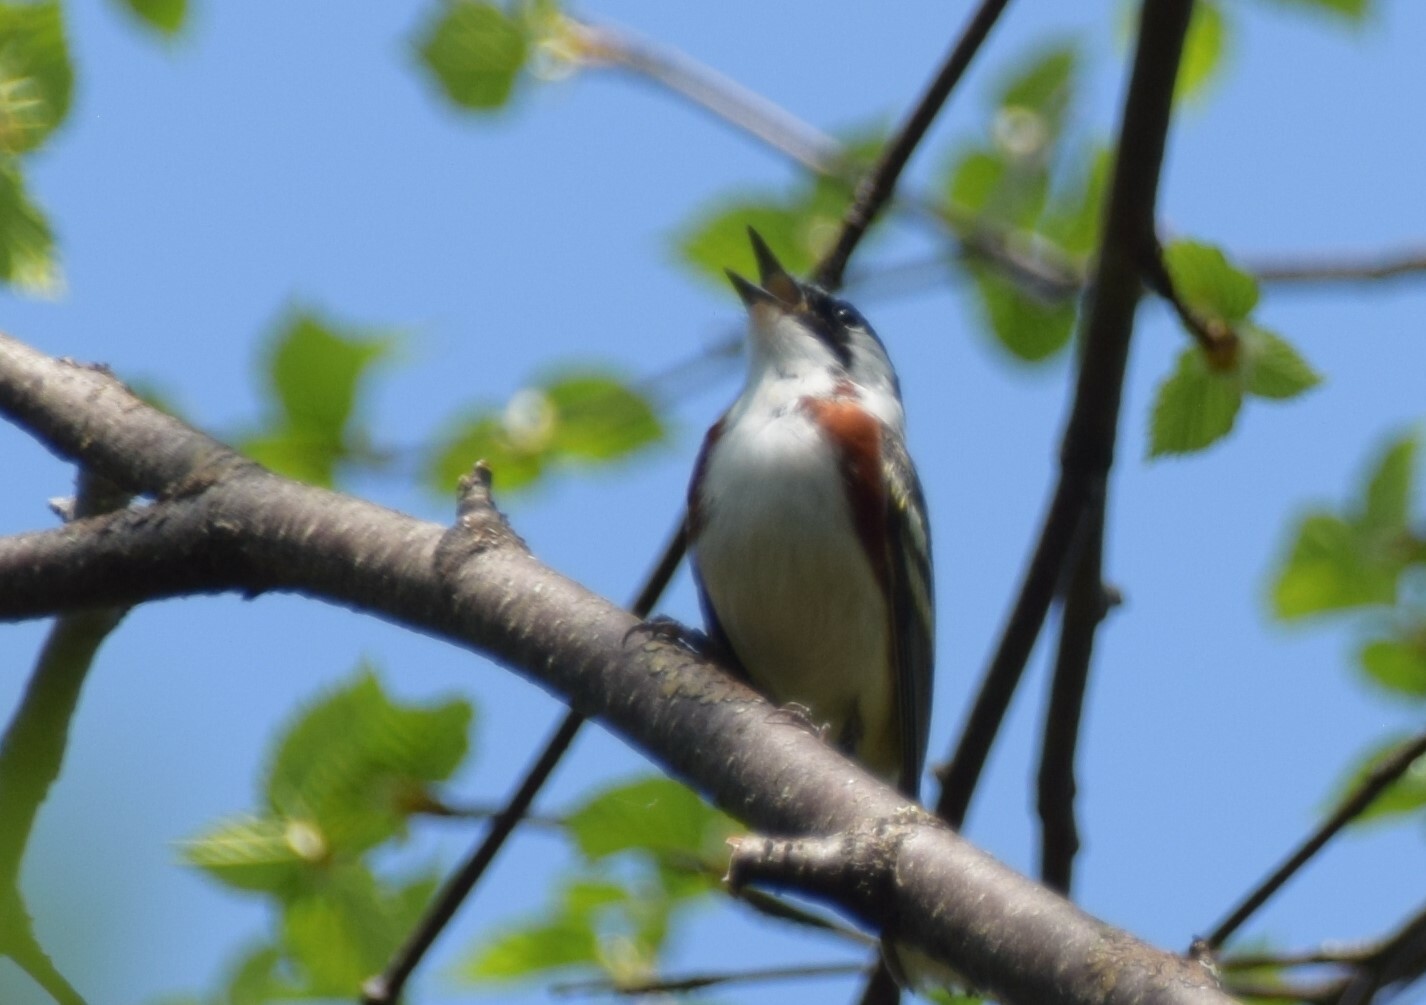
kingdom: Animalia
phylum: Chordata
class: Aves
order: Passeriformes
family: Parulidae
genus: Setophaga
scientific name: Setophaga pensylvanica
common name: Chestnut-sided warbler
